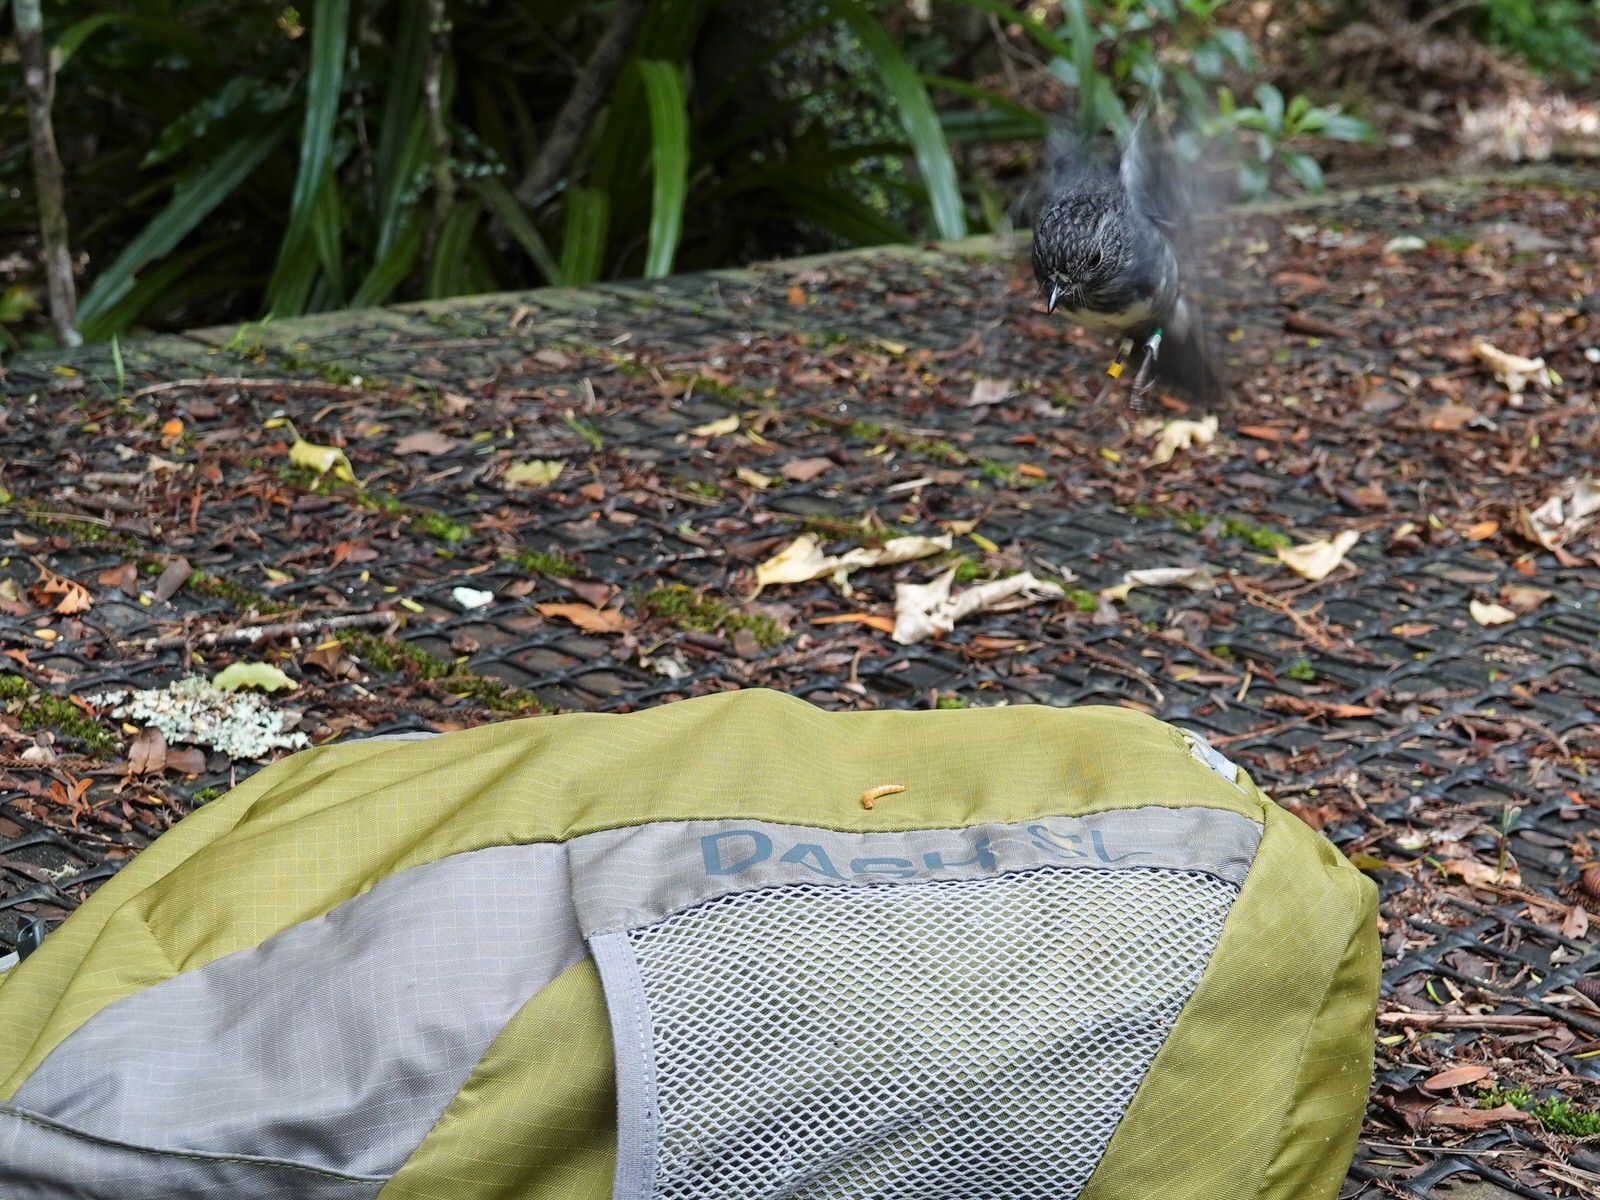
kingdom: Animalia
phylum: Chordata
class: Aves
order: Passeriformes
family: Petroicidae
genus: Petroica
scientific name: Petroica australis
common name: New zealand robin
